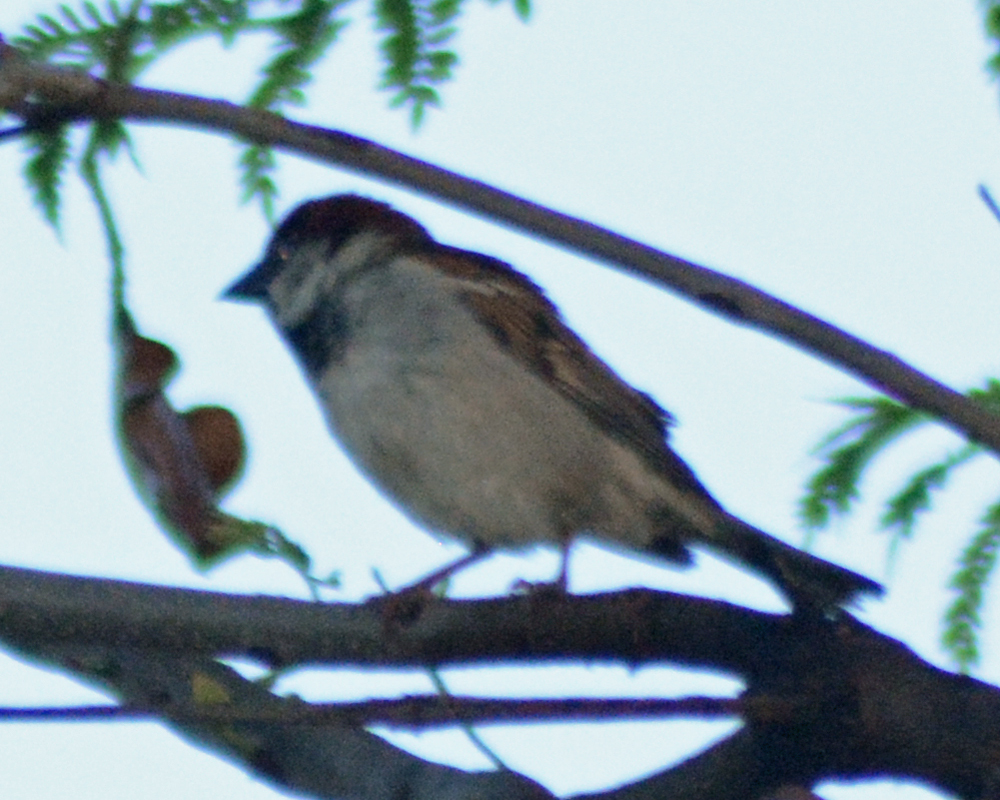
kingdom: Animalia
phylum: Chordata
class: Aves
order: Passeriformes
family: Passeridae
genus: Passer
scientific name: Passer domesticus
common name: House sparrow
